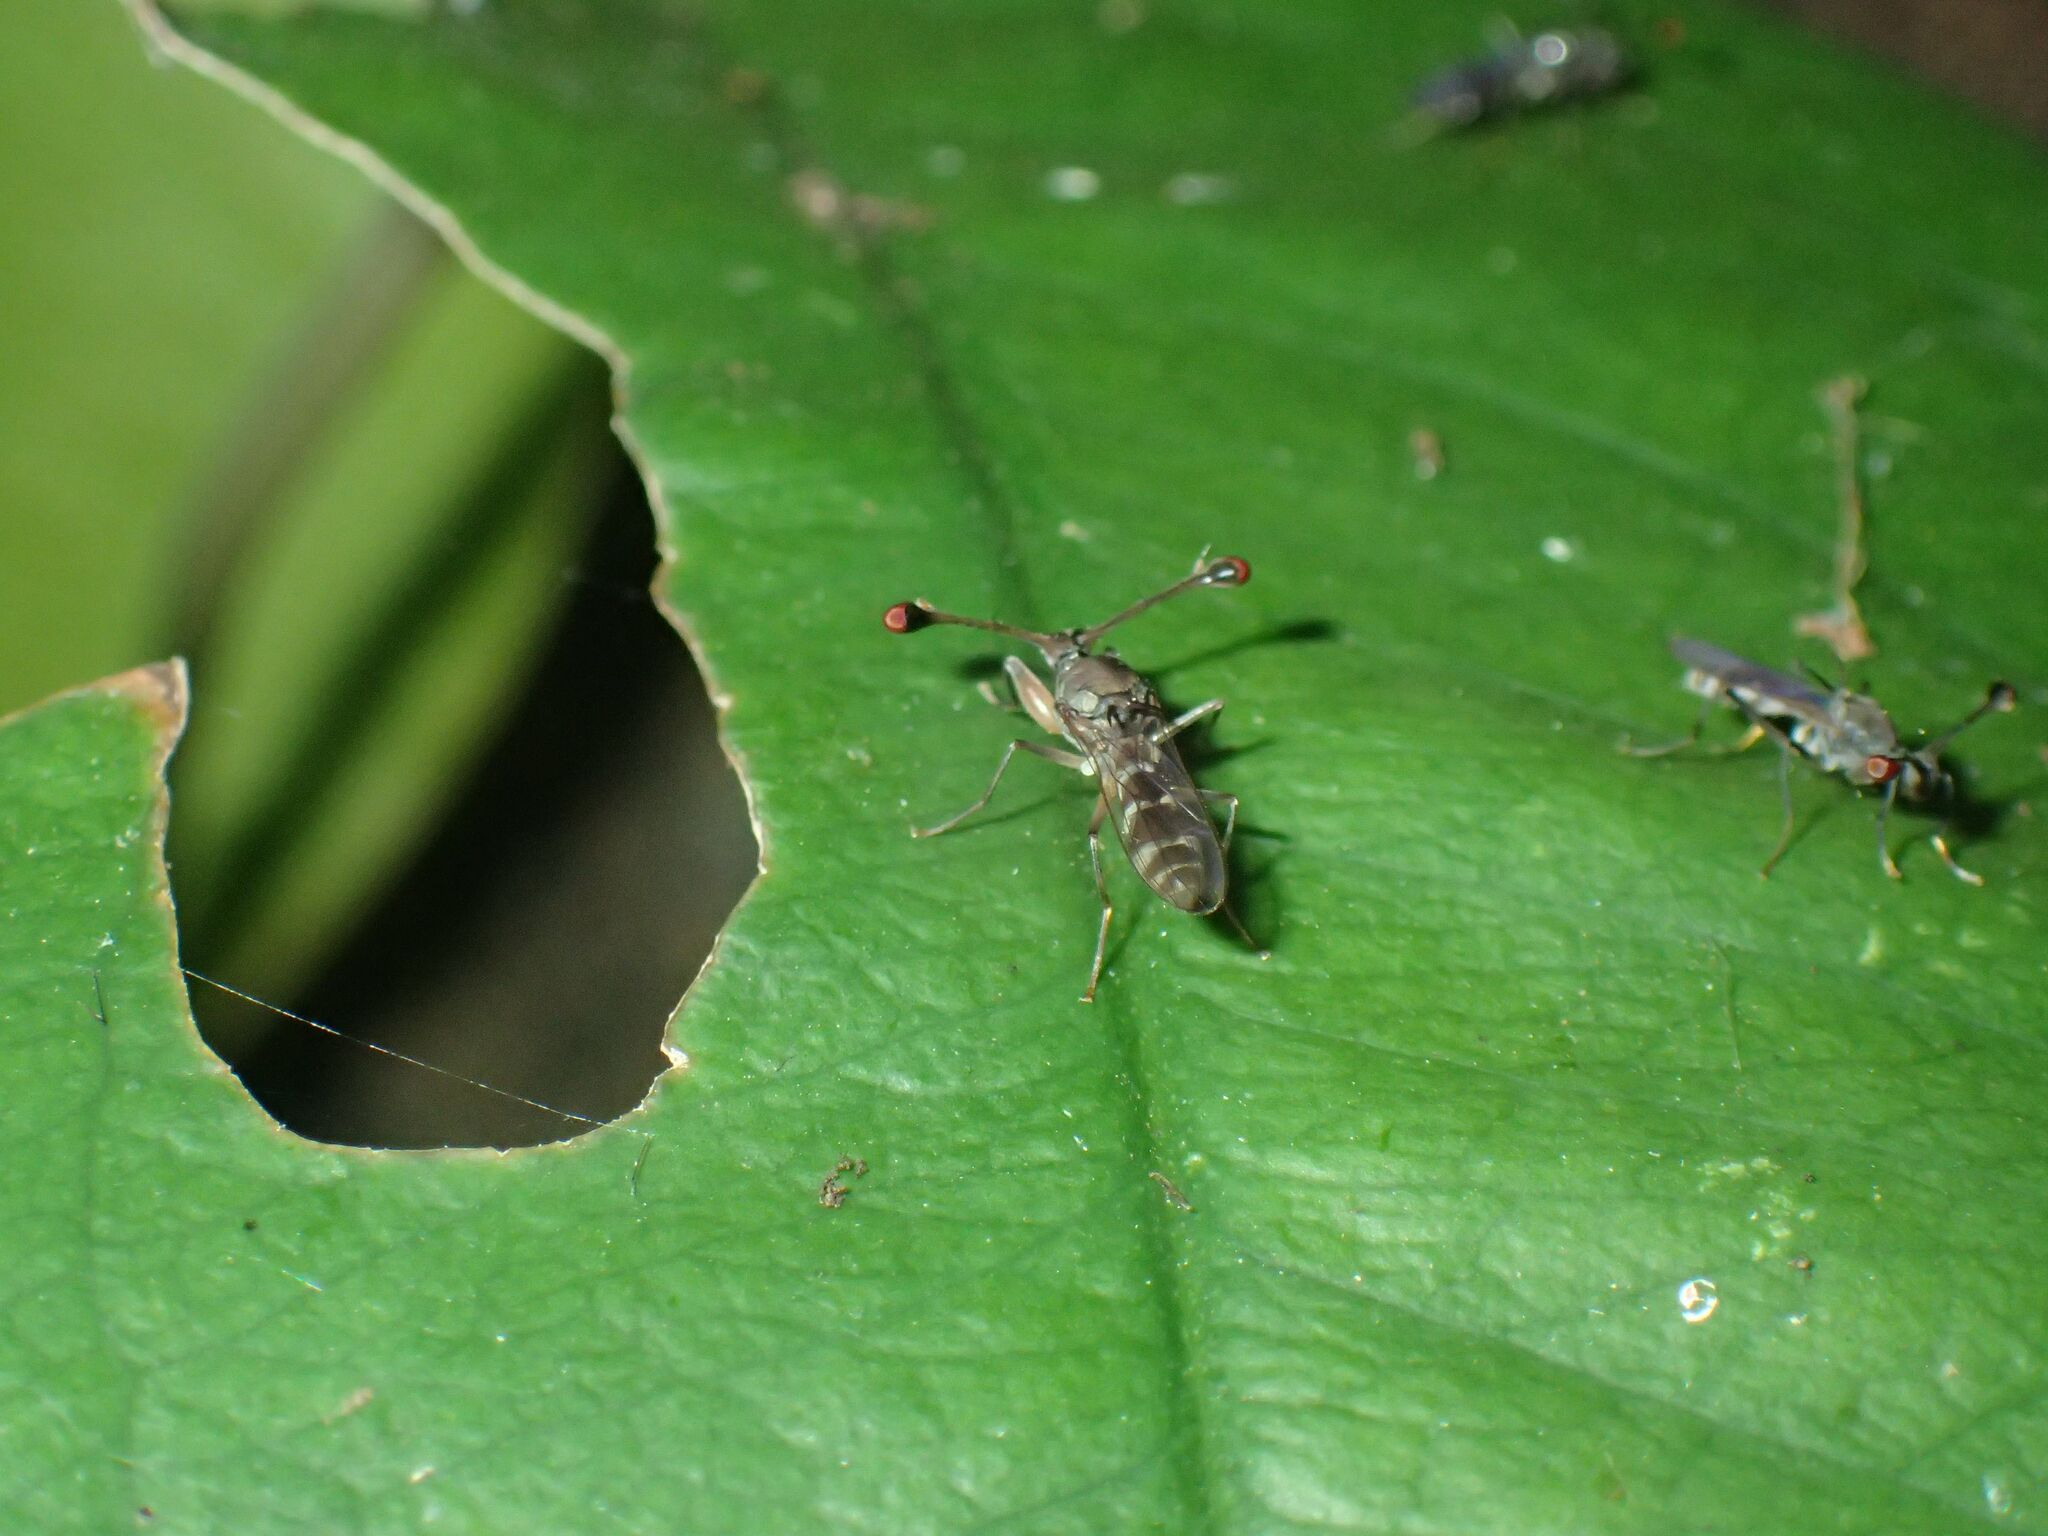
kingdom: Animalia
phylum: Arthropoda
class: Insecta
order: Diptera
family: Diopsidae
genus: Diasemopsis
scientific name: Diasemopsis silvatica
